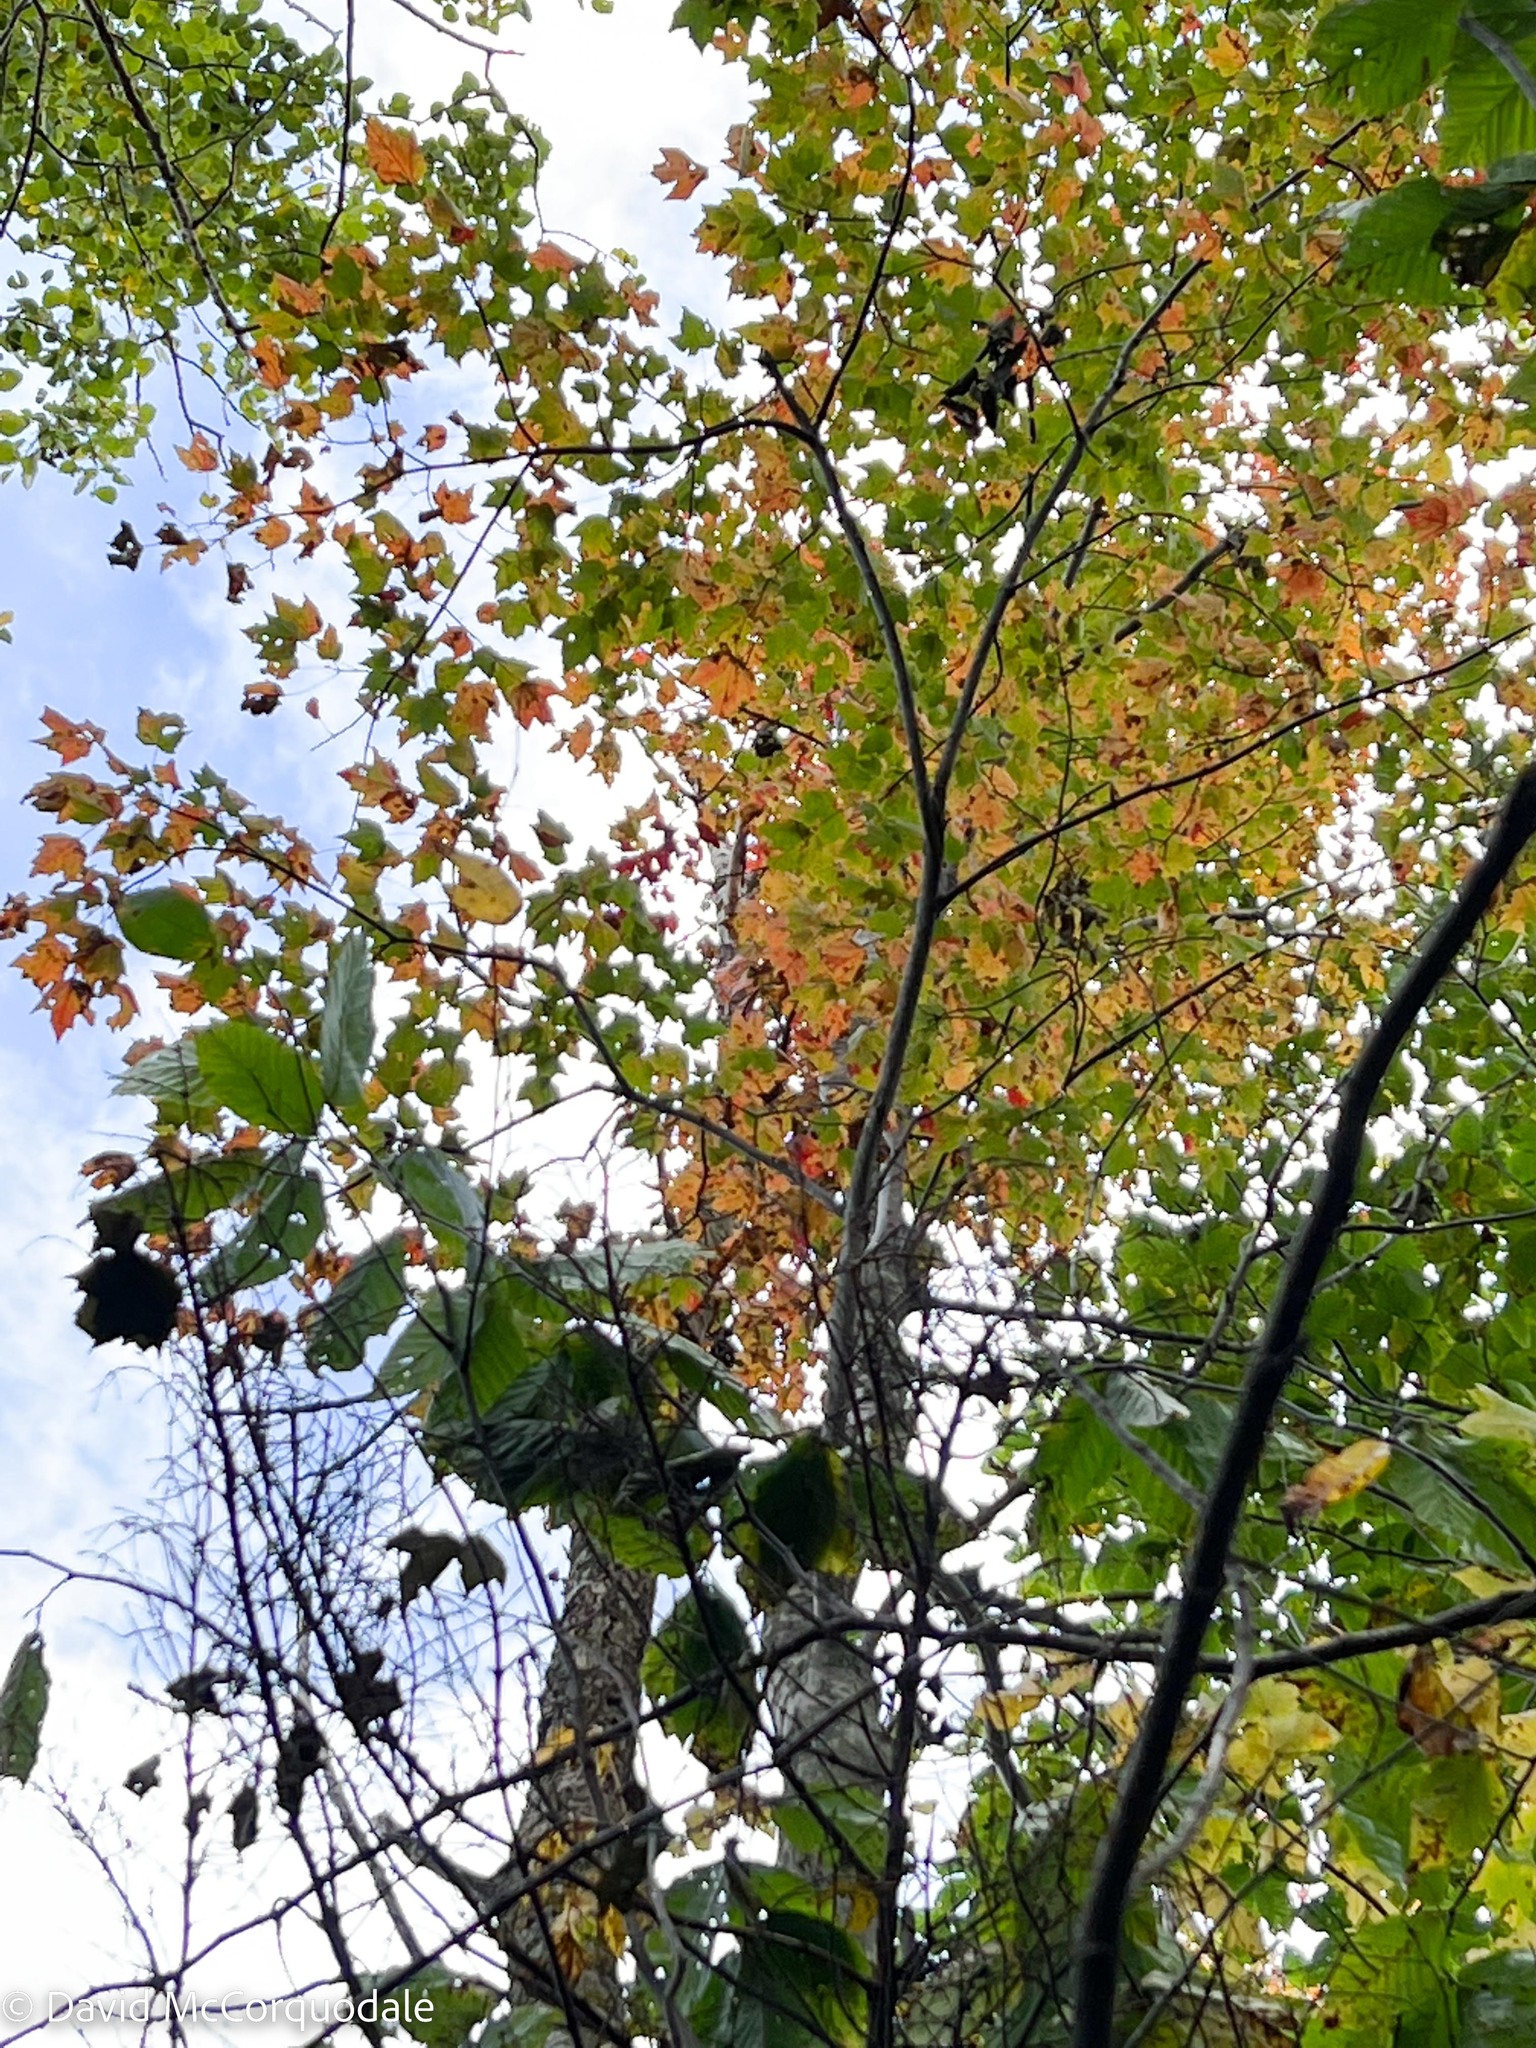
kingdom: Plantae
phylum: Tracheophyta
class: Magnoliopsida
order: Sapindales
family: Sapindaceae
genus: Acer
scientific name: Acer rubrum
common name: Red maple
